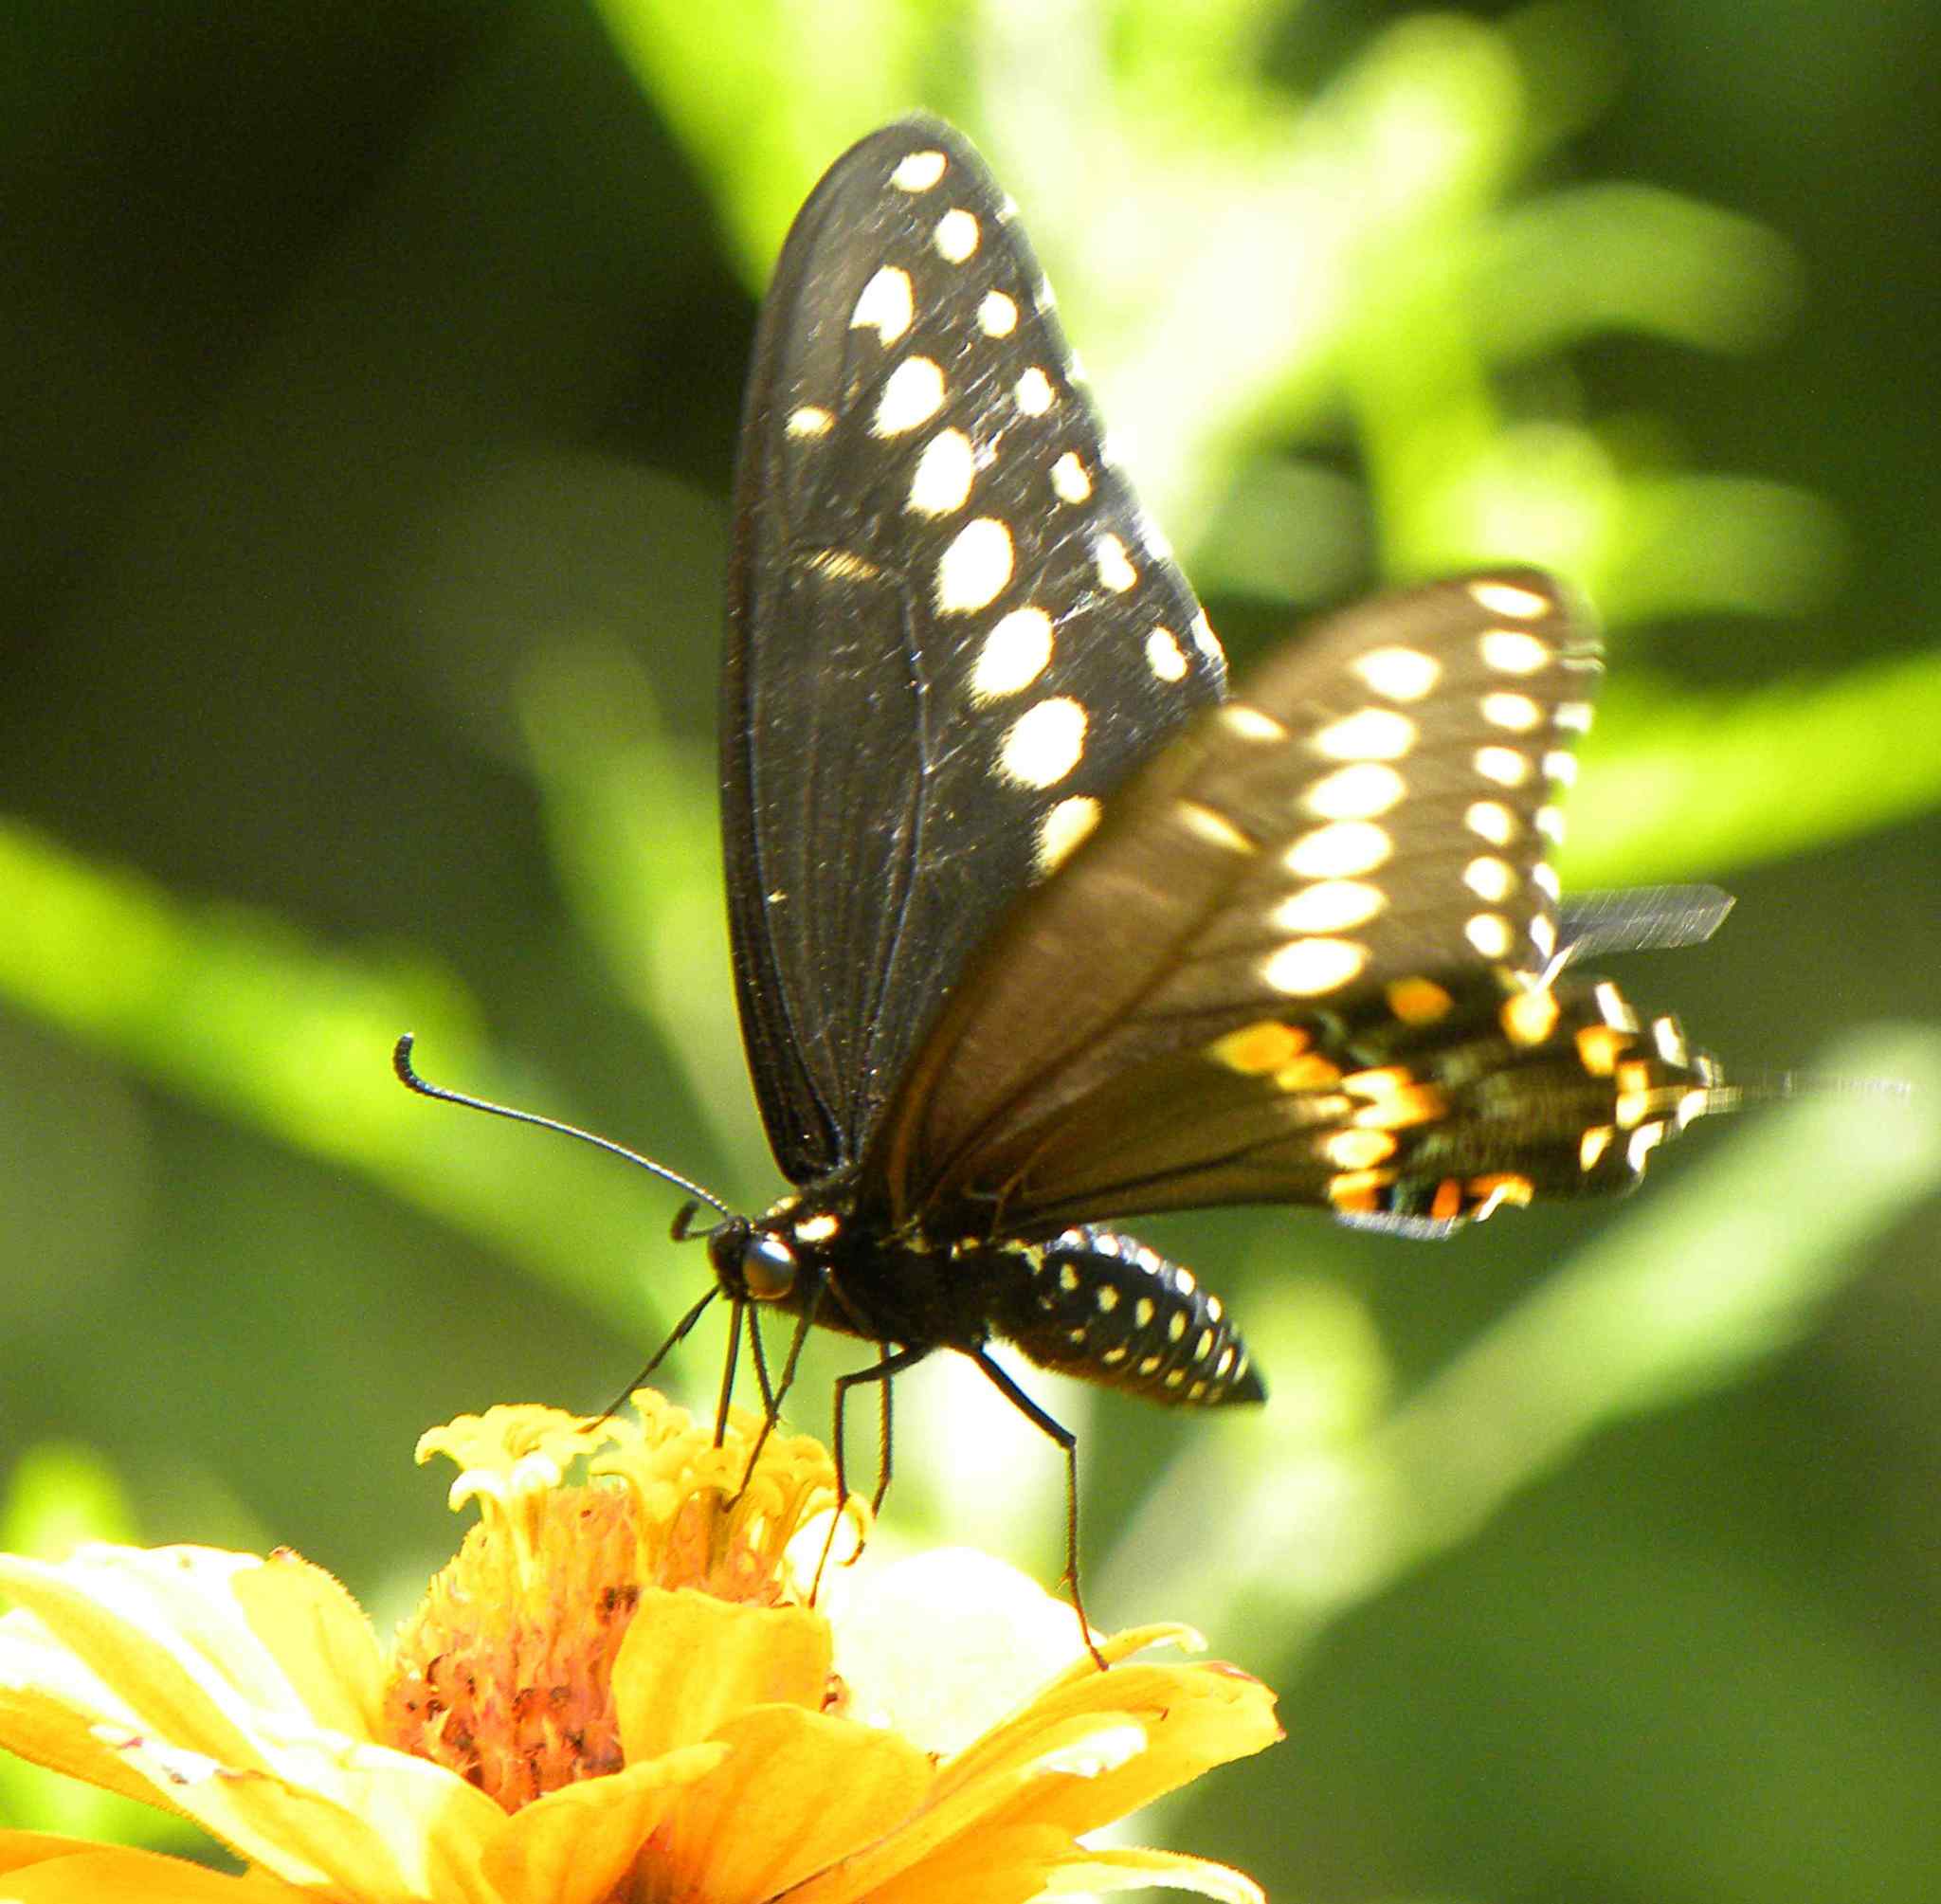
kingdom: Animalia
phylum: Arthropoda
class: Insecta
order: Lepidoptera
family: Papilionidae
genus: Papilio
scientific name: Papilio polyxenes
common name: Black swallowtail
